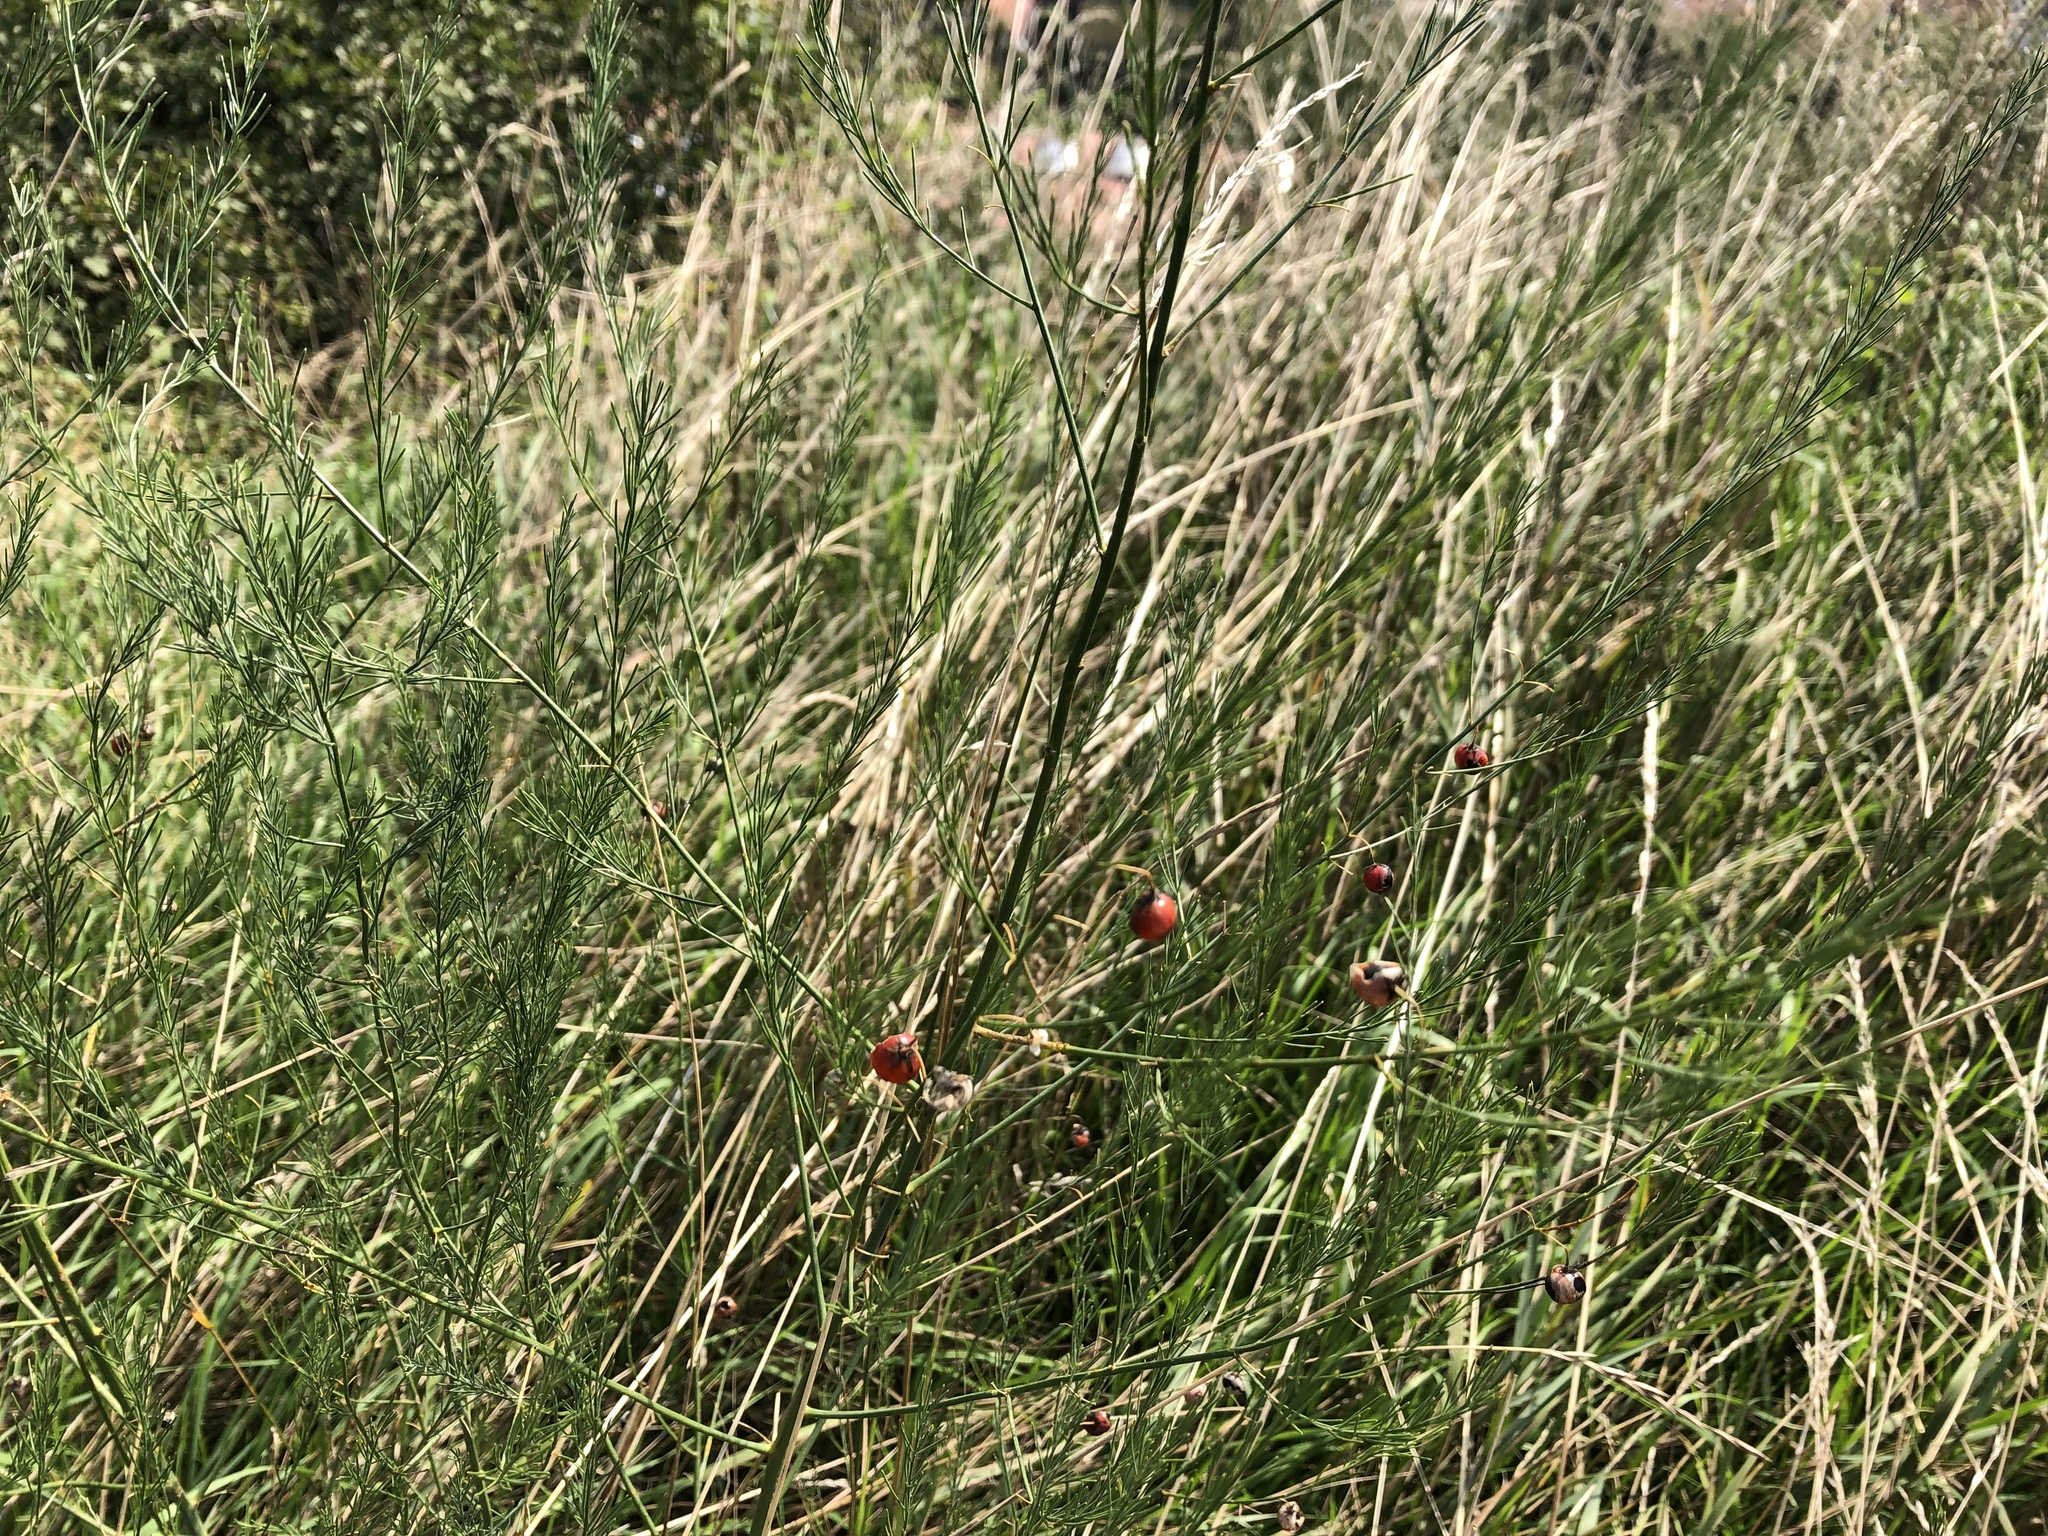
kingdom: Plantae
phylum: Tracheophyta
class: Liliopsida
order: Asparagales
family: Asparagaceae
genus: Asparagus
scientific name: Asparagus officinalis
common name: Garden asparagus
